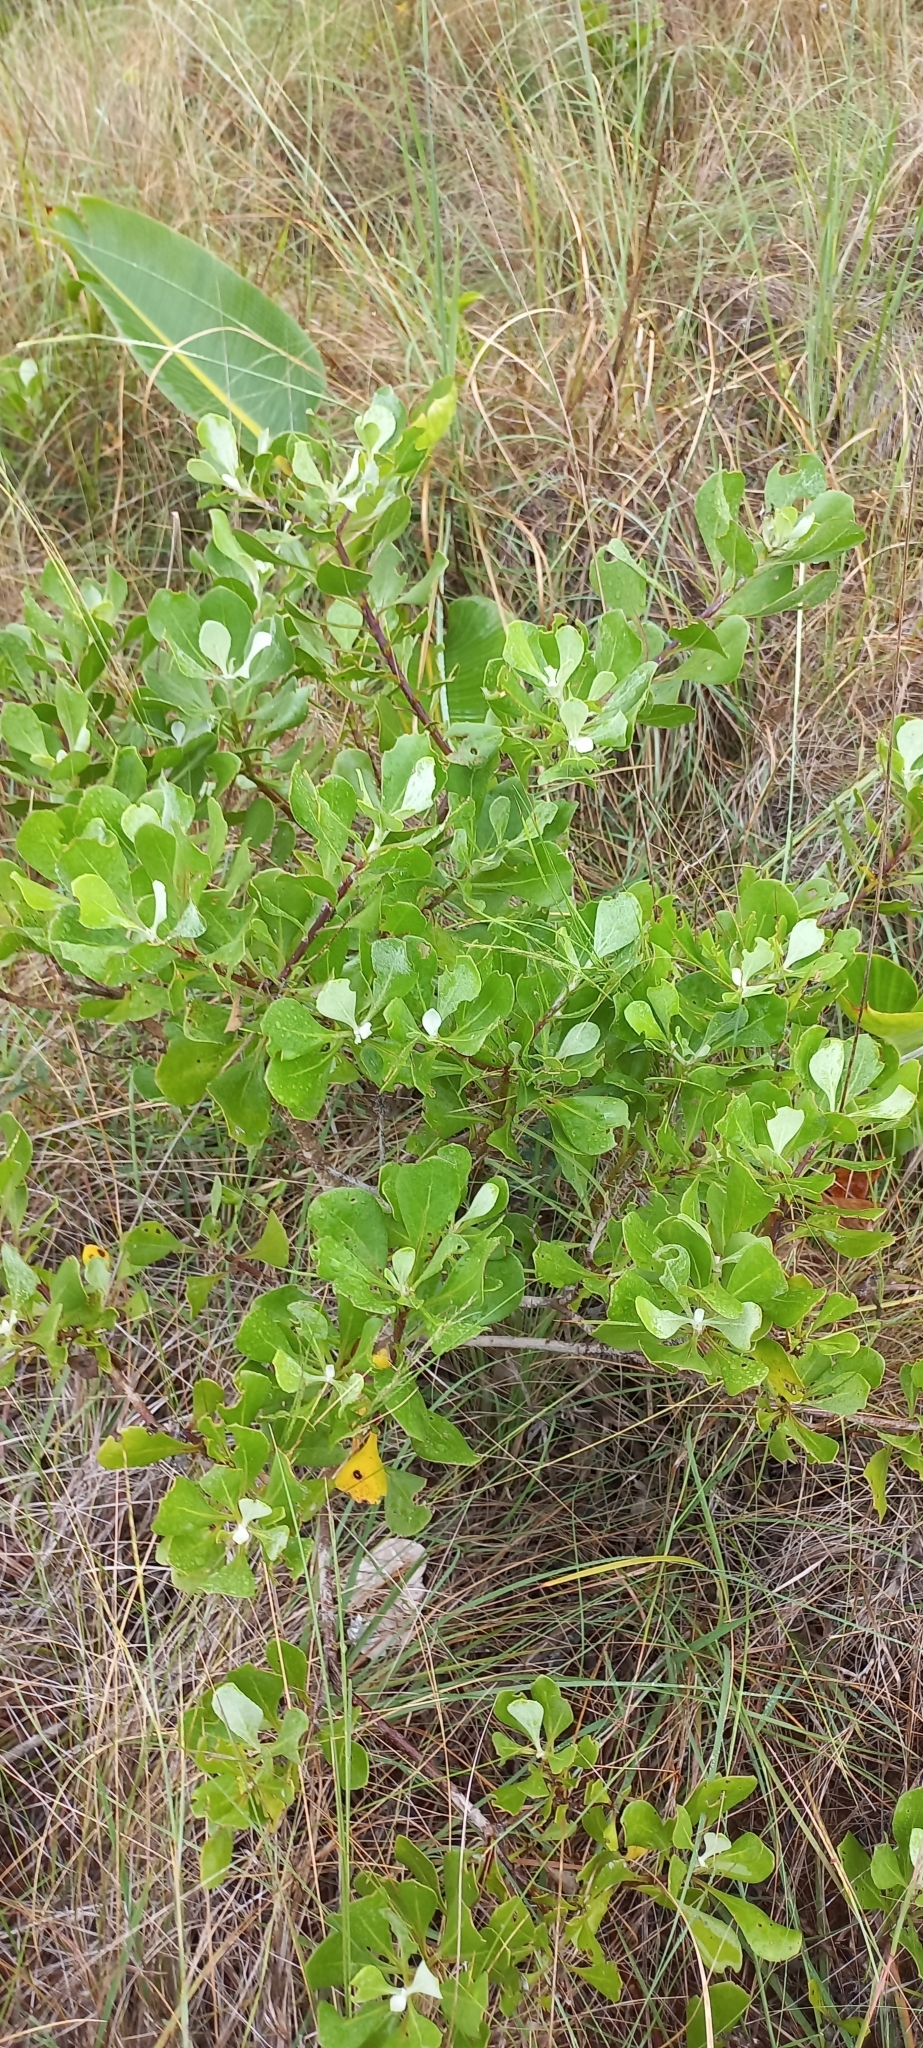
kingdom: Plantae
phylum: Tracheophyta
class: Magnoliopsida
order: Asterales
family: Asteraceae
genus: Osteospermum
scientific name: Osteospermum moniliferum
